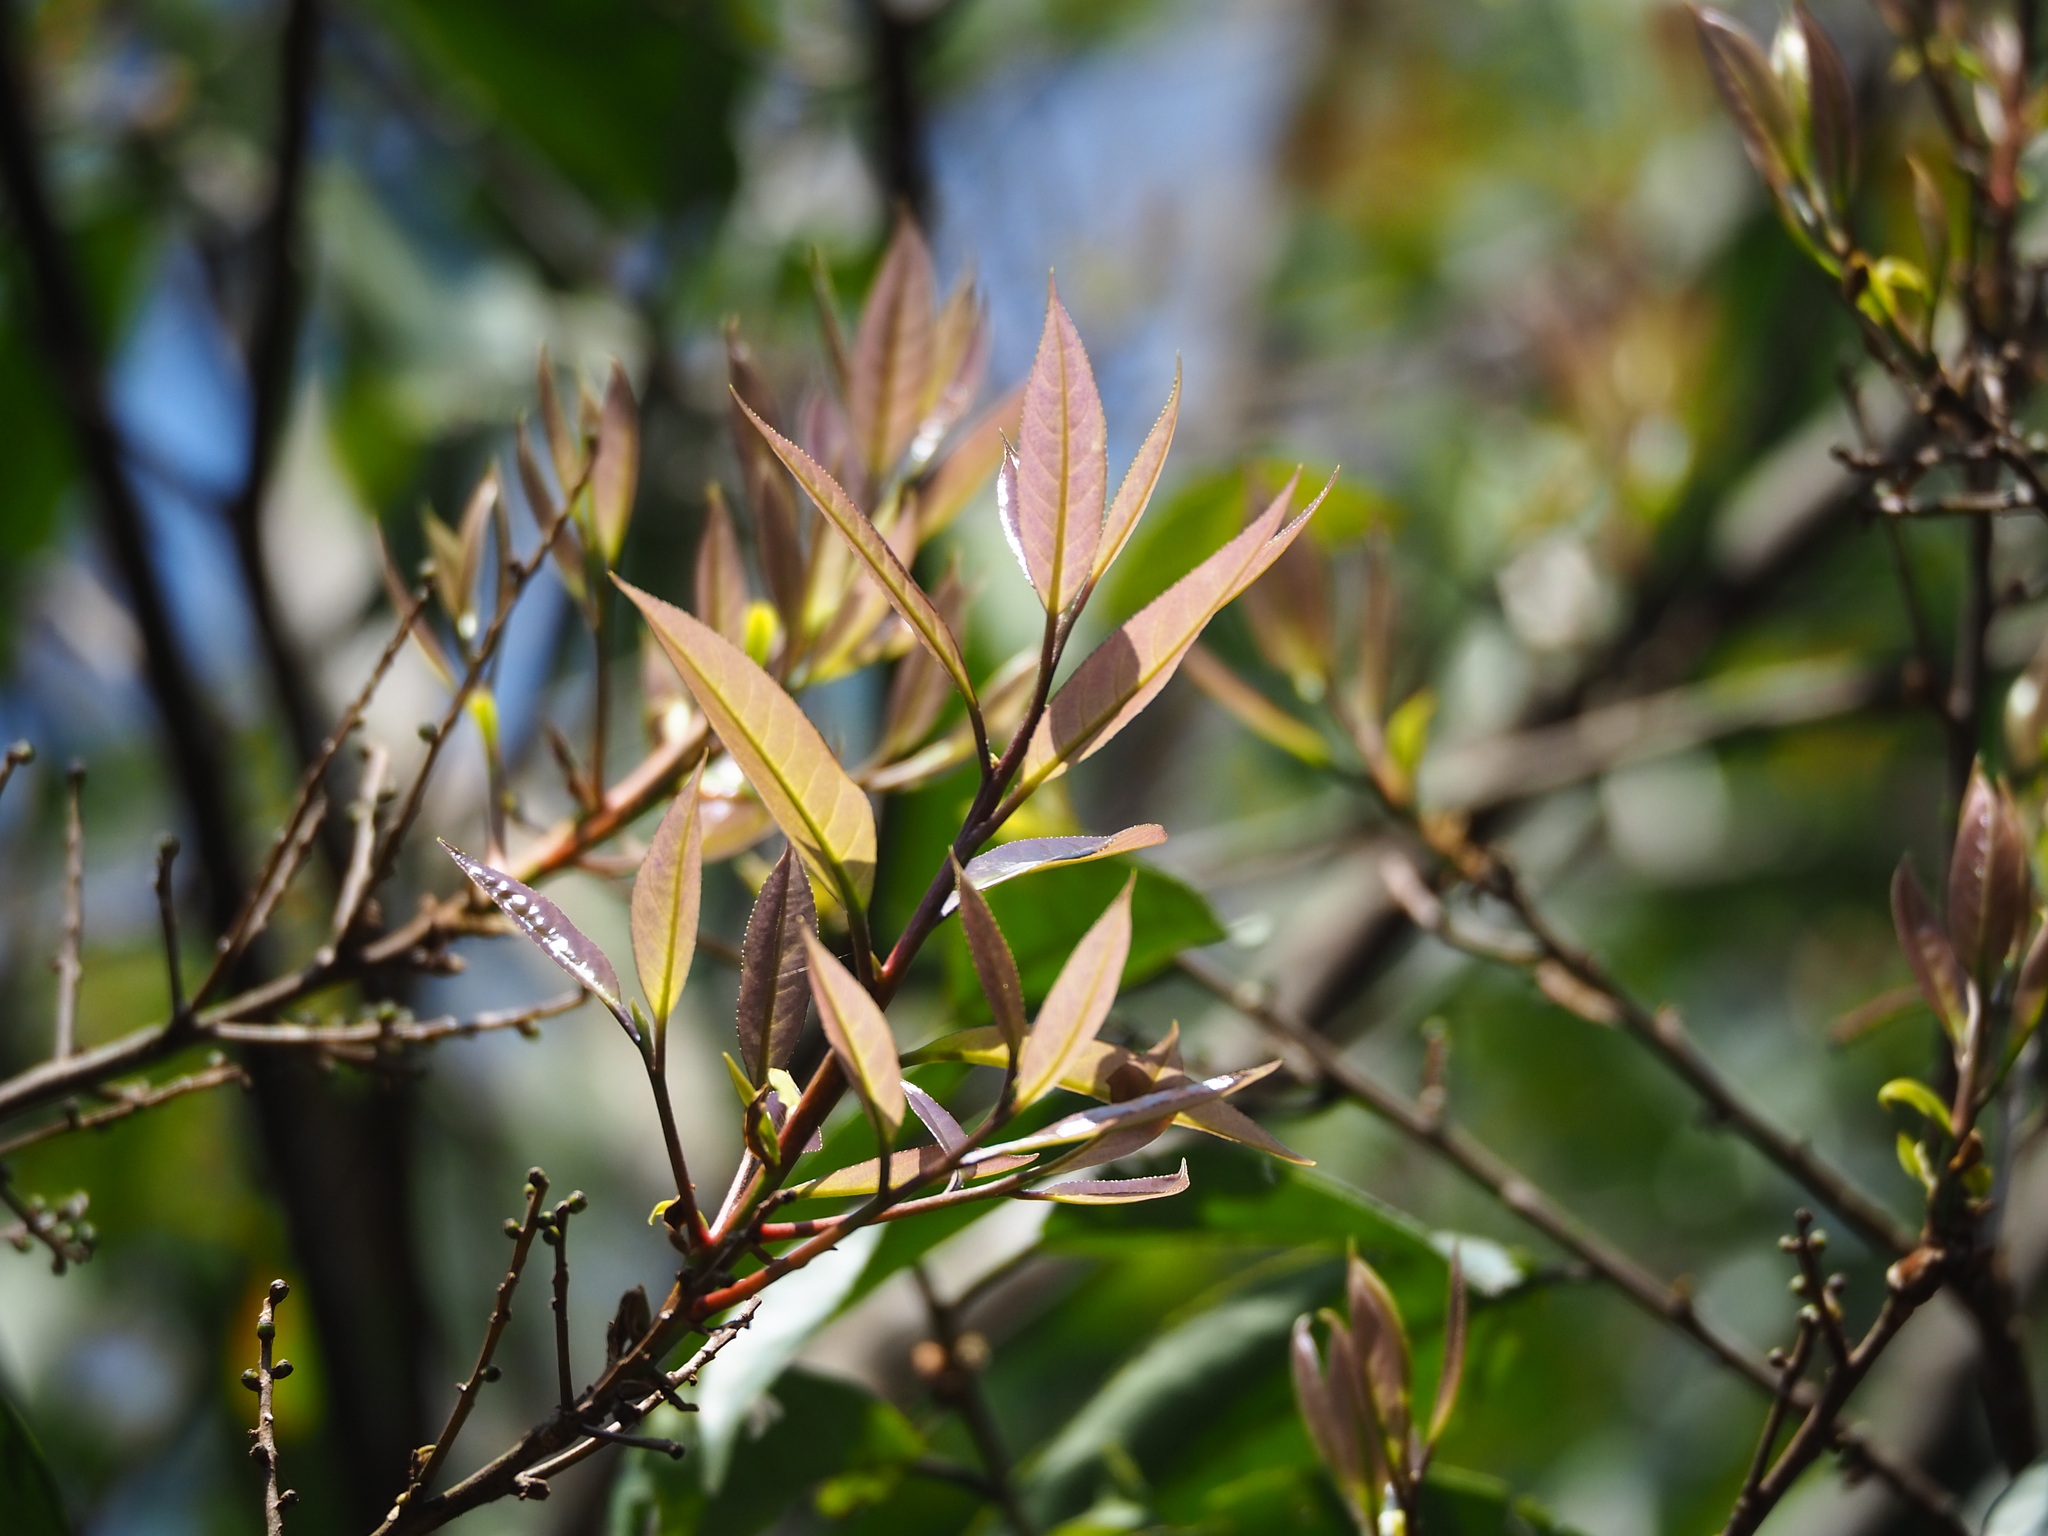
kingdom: Plantae
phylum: Tracheophyta
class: Magnoliopsida
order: Ericales
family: Symplocaceae
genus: Symplocos
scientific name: Symplocos acuminata
